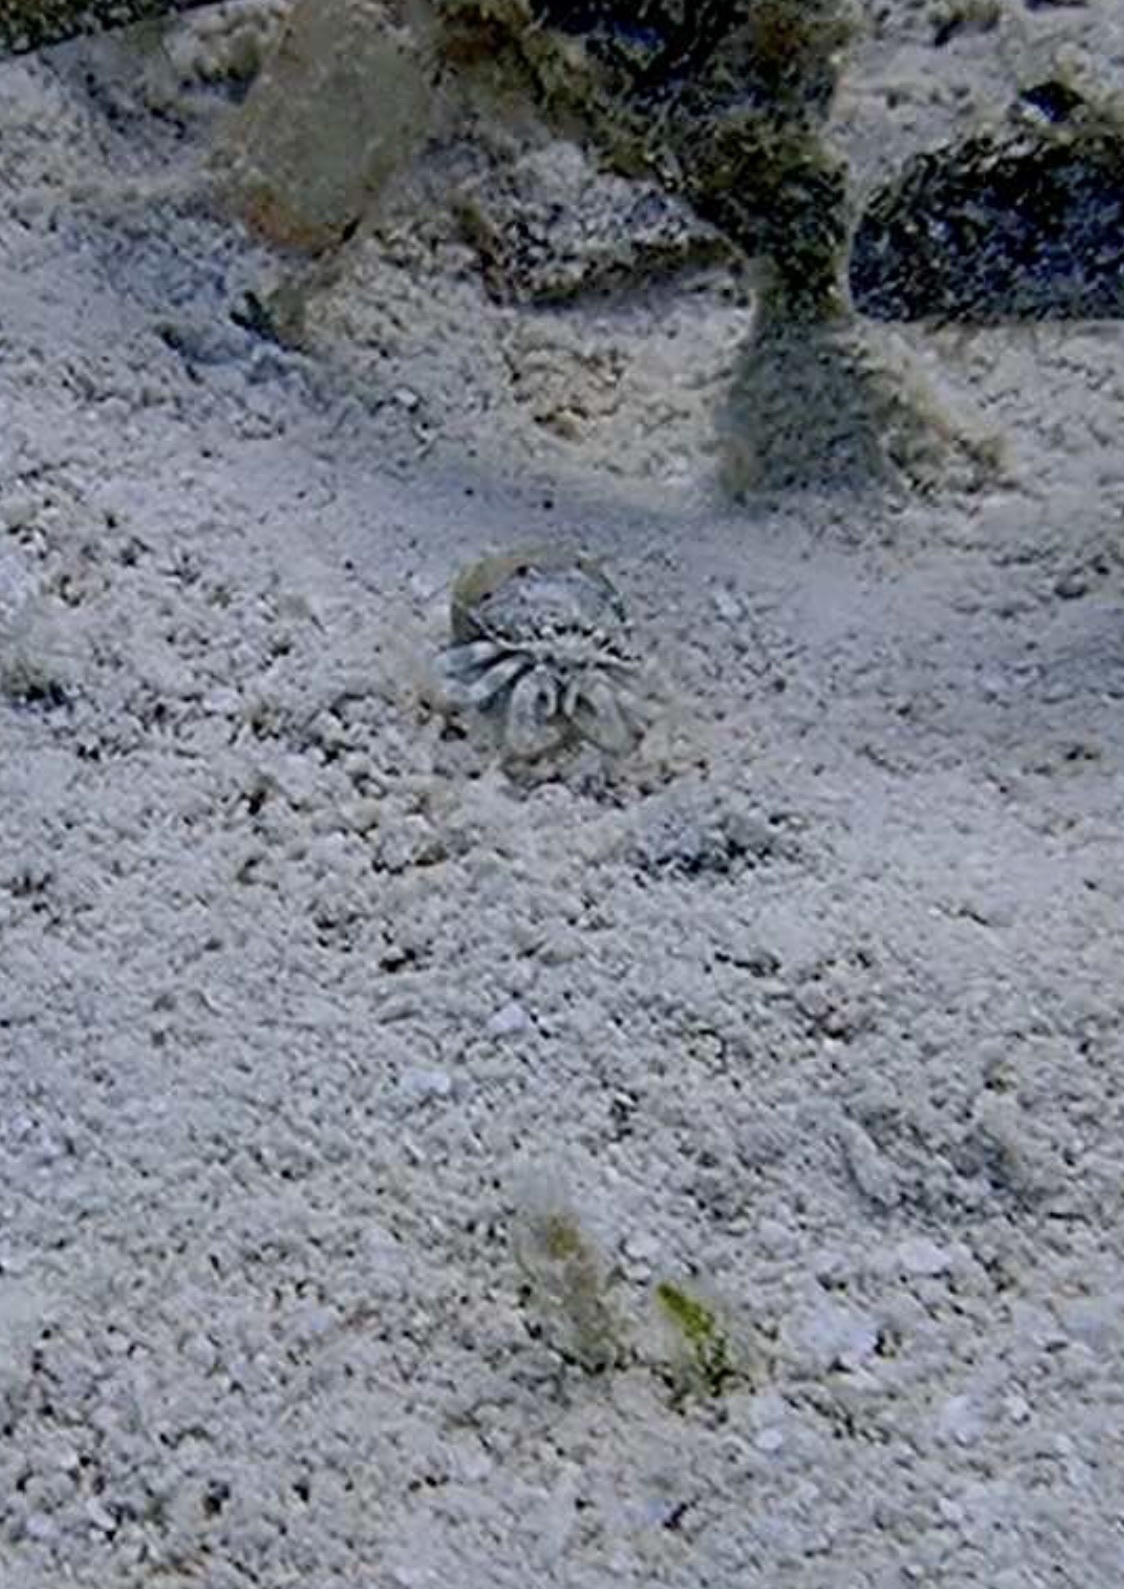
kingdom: Animalia
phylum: Arthropoda
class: Malacostraca
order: Decapoda
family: Paguridae
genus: Iridopagurus
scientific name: Iridopagurus reticulatus
